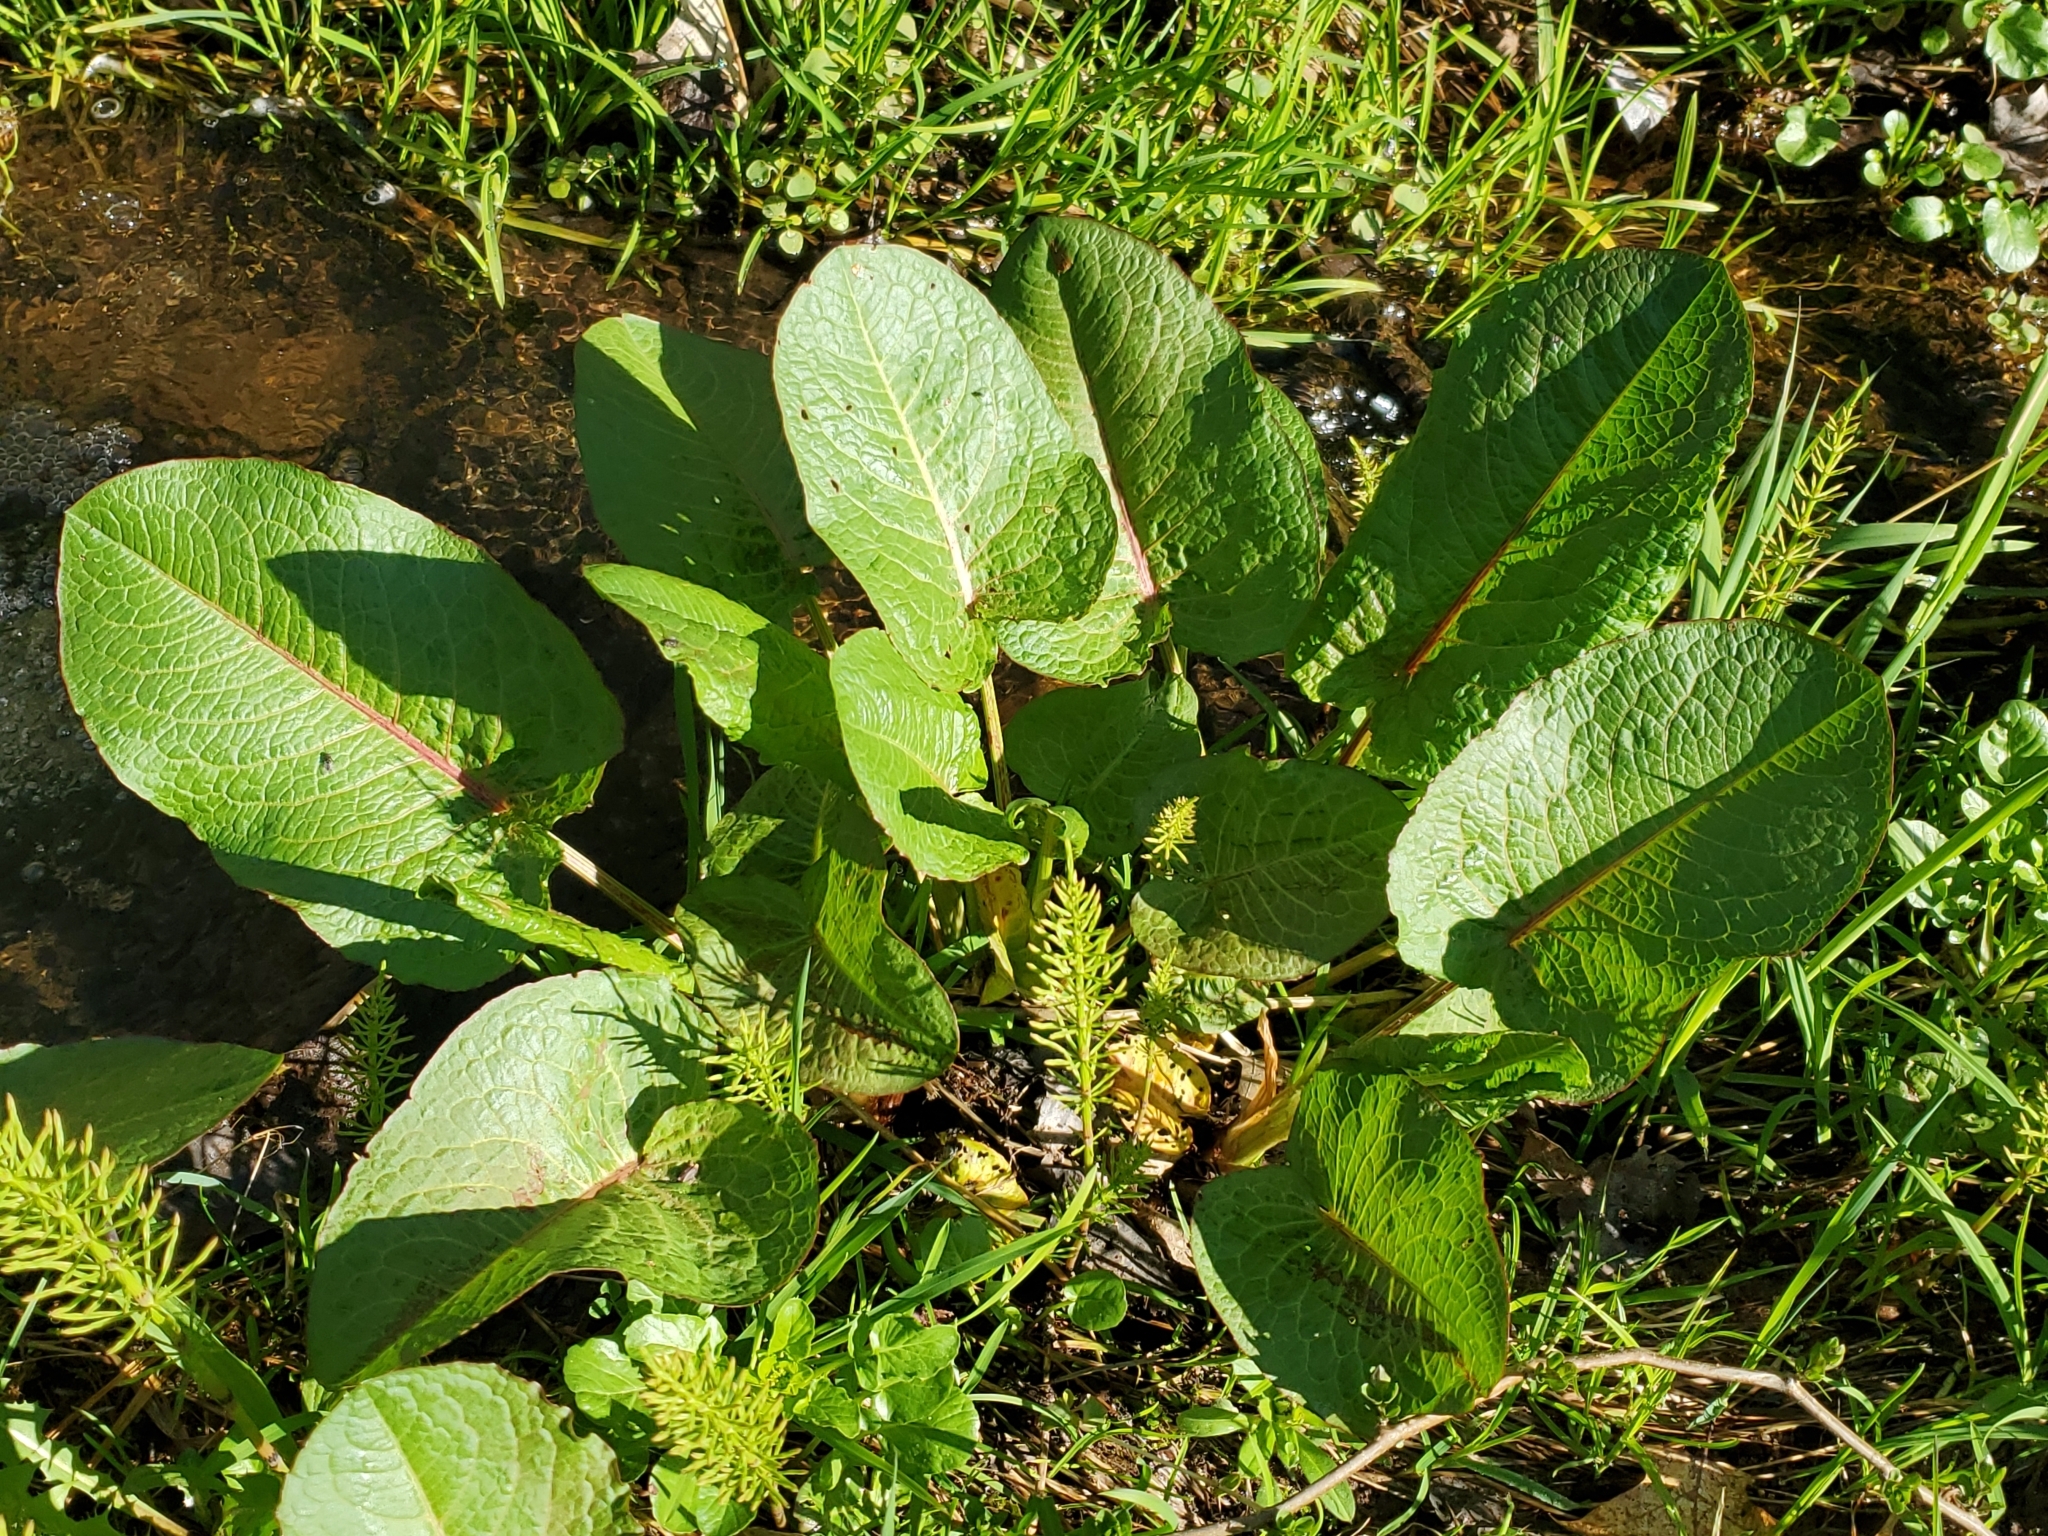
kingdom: Plantae
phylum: Tracheophyta
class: Magnoliopsida
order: Caryophyllales
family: Polygonaceae
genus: Rumex
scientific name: Rumex obtusifolius
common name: Bitter dock
